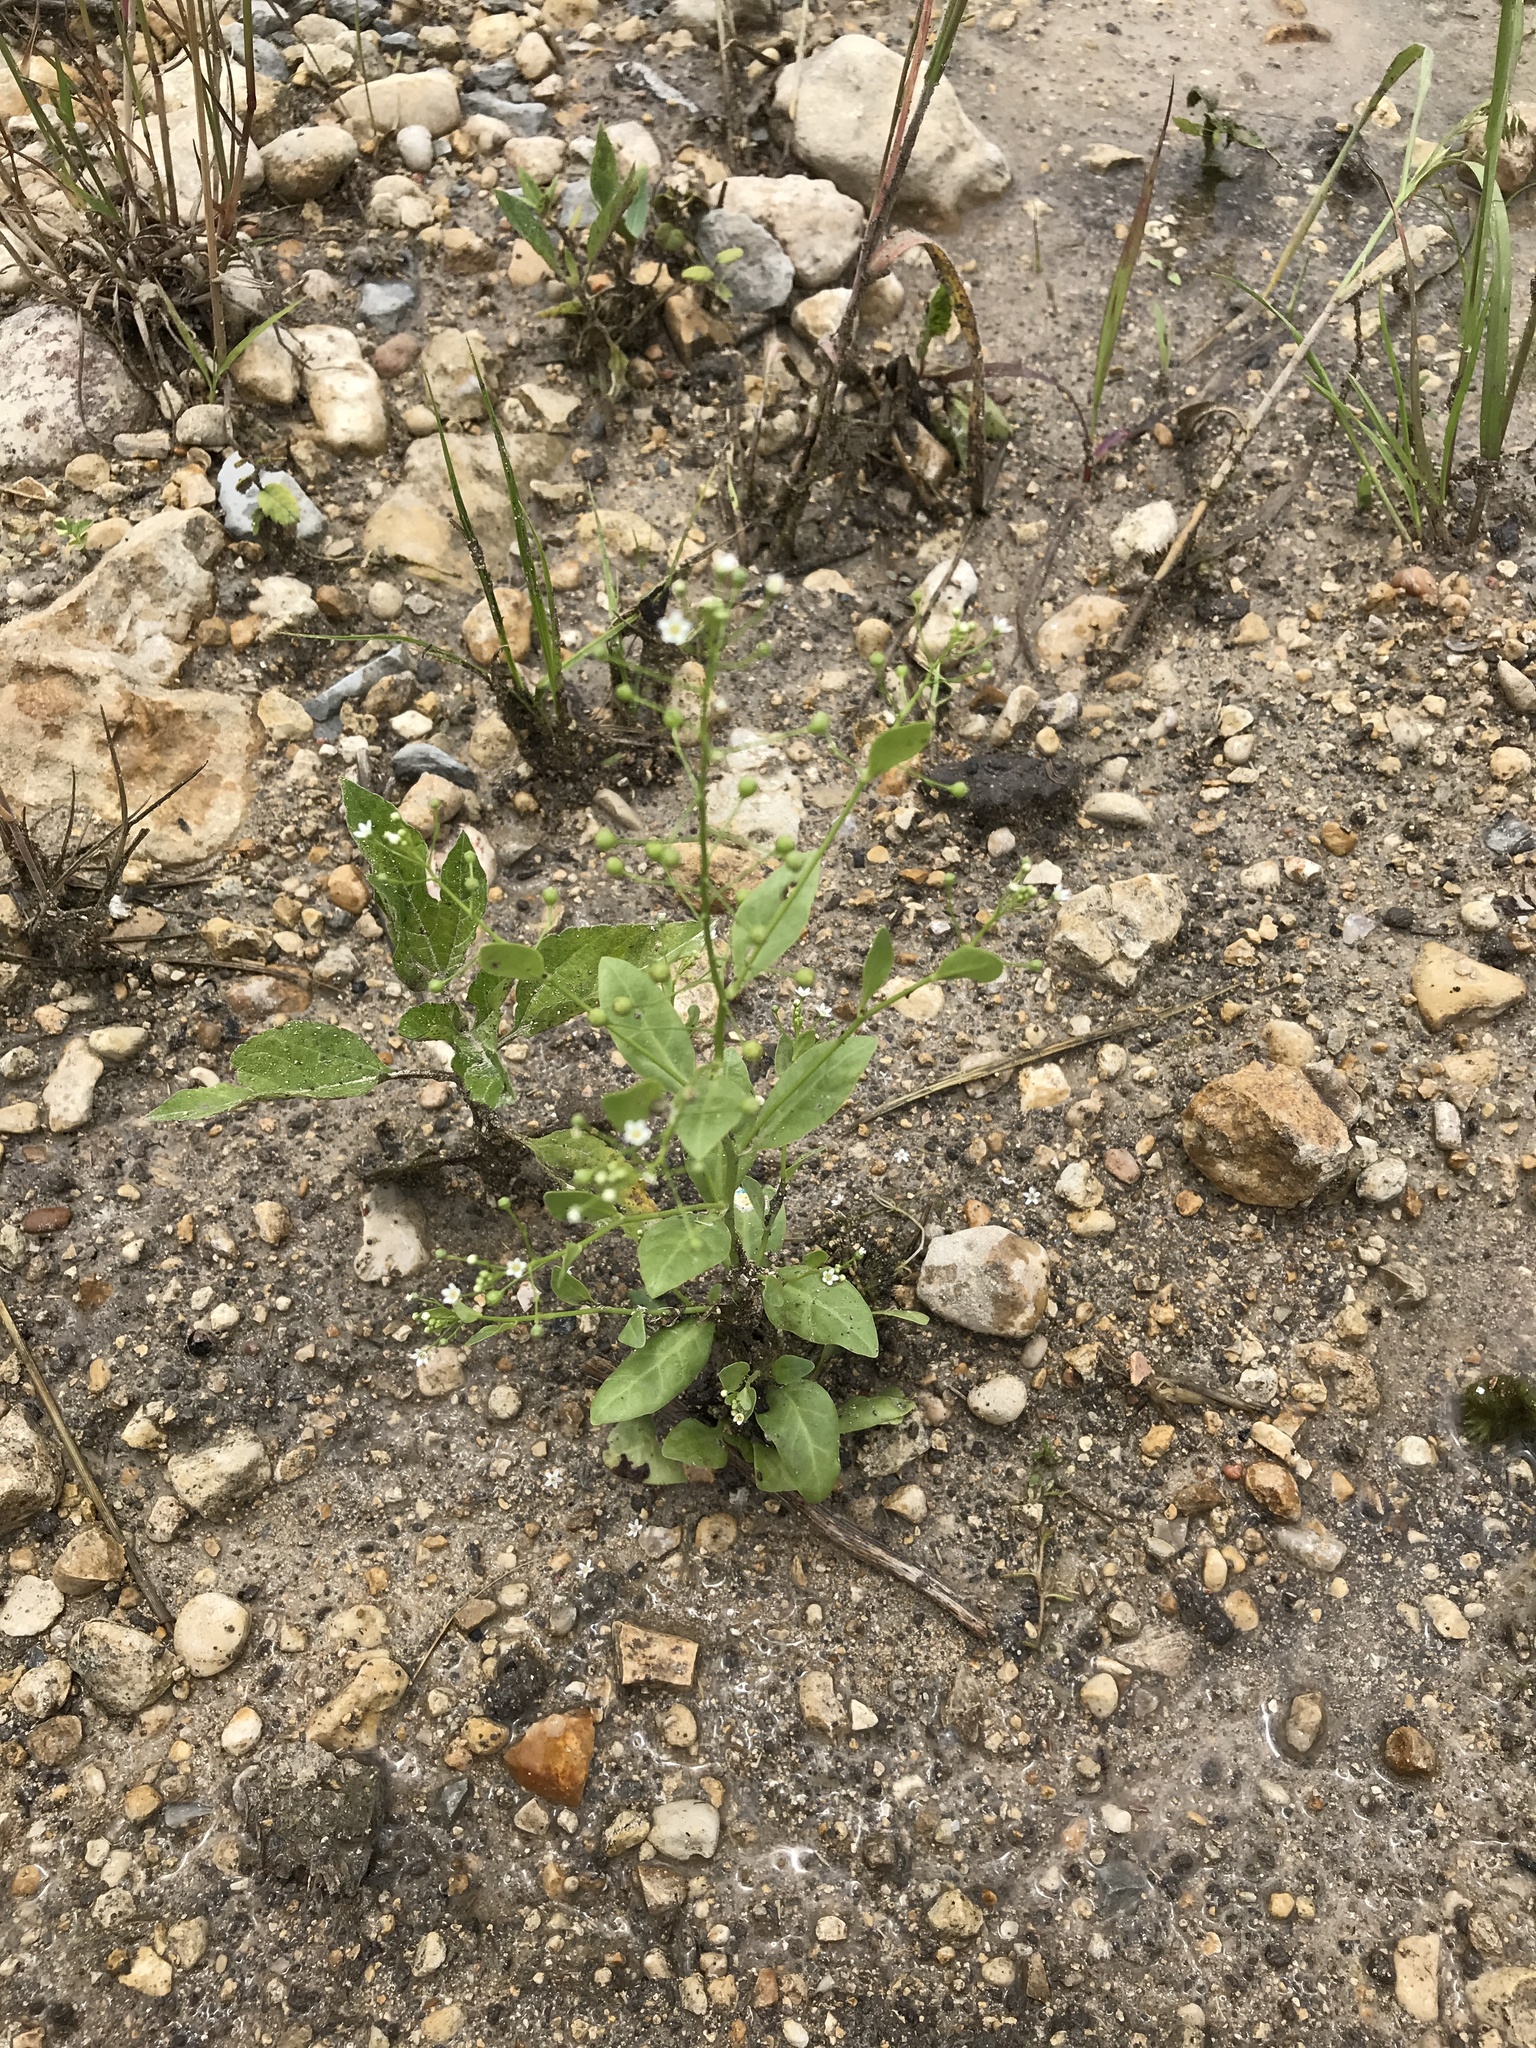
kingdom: Plantae
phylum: Tracheophyta
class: Magnoliopsida
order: Ericales
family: Primulaceae
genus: Samolus
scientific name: Samolus parviflorus
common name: False water pimpernel
